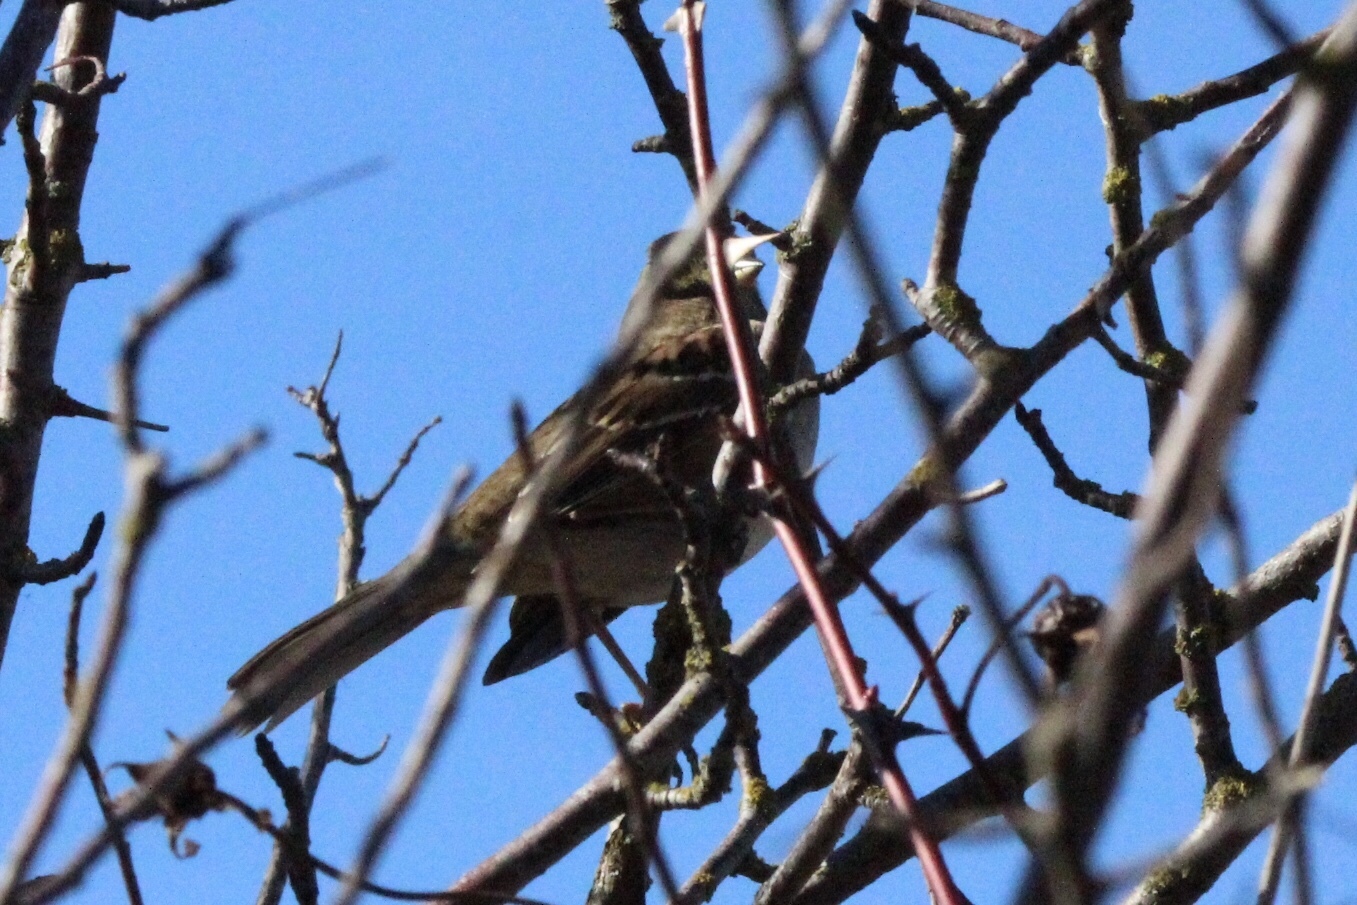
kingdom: Animalia
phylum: Chordata
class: Aves
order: Passeriformes
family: Passerellidae
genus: Zonotrichia
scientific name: Zonotrichia atricapilla
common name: Golden-crowned sparrow
